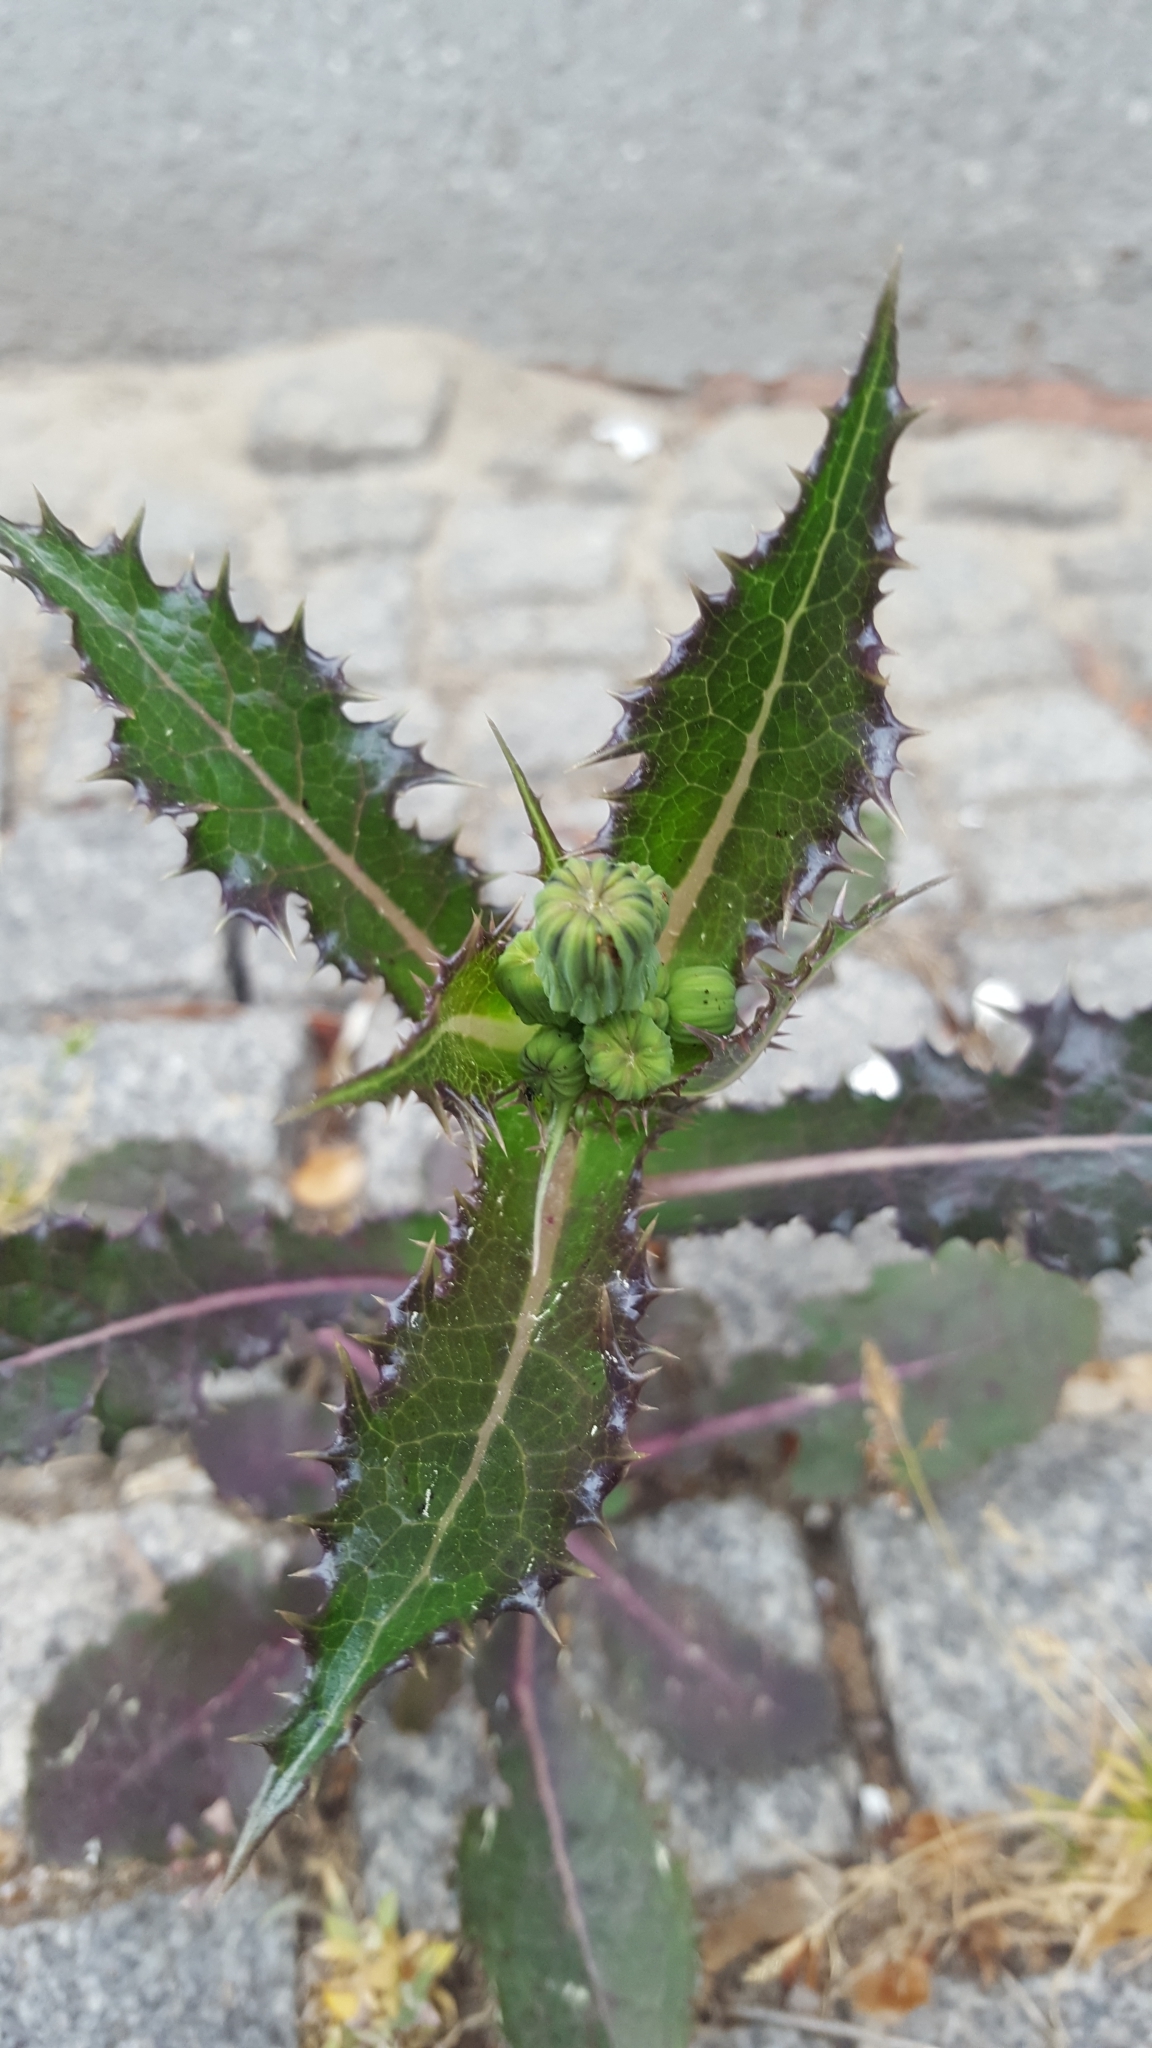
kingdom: Plantae
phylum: Tracheophyta
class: Magnoliopsida
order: Asterales
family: Asteraceae
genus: Sonchus
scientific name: Sonchus asper
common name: Prickly sow-thistle
